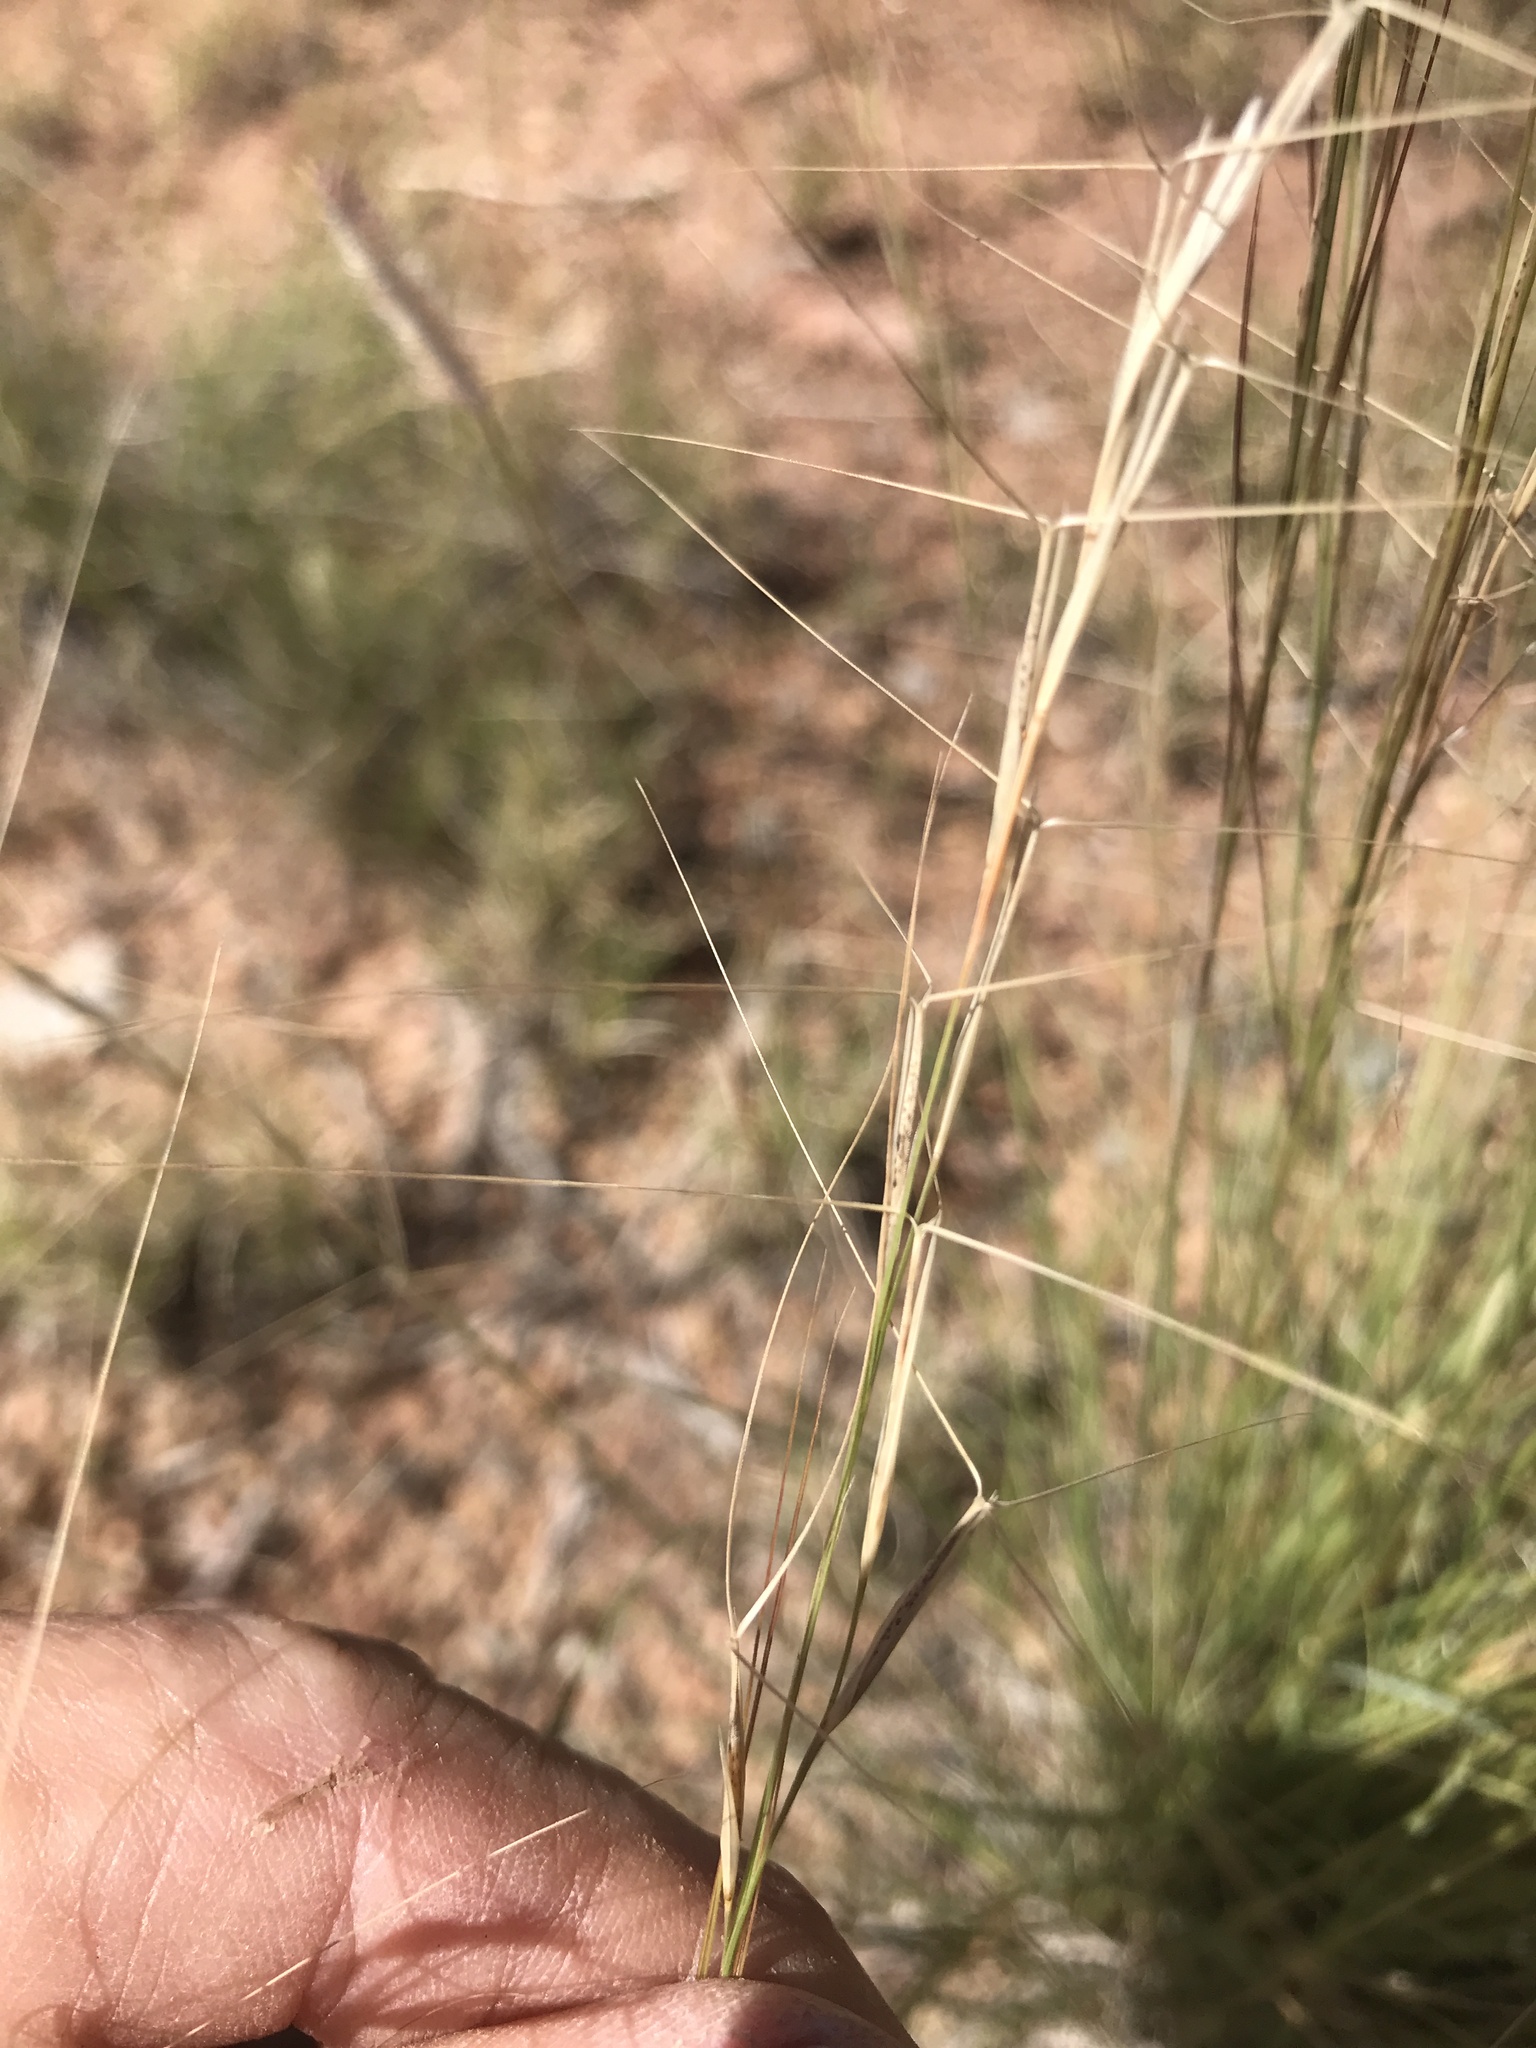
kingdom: Plantae
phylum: Tracheophyta
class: Liliopsida
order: Poales
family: Poaceae
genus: Aristida
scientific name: Aristida purpurea
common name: Purple threeawn
